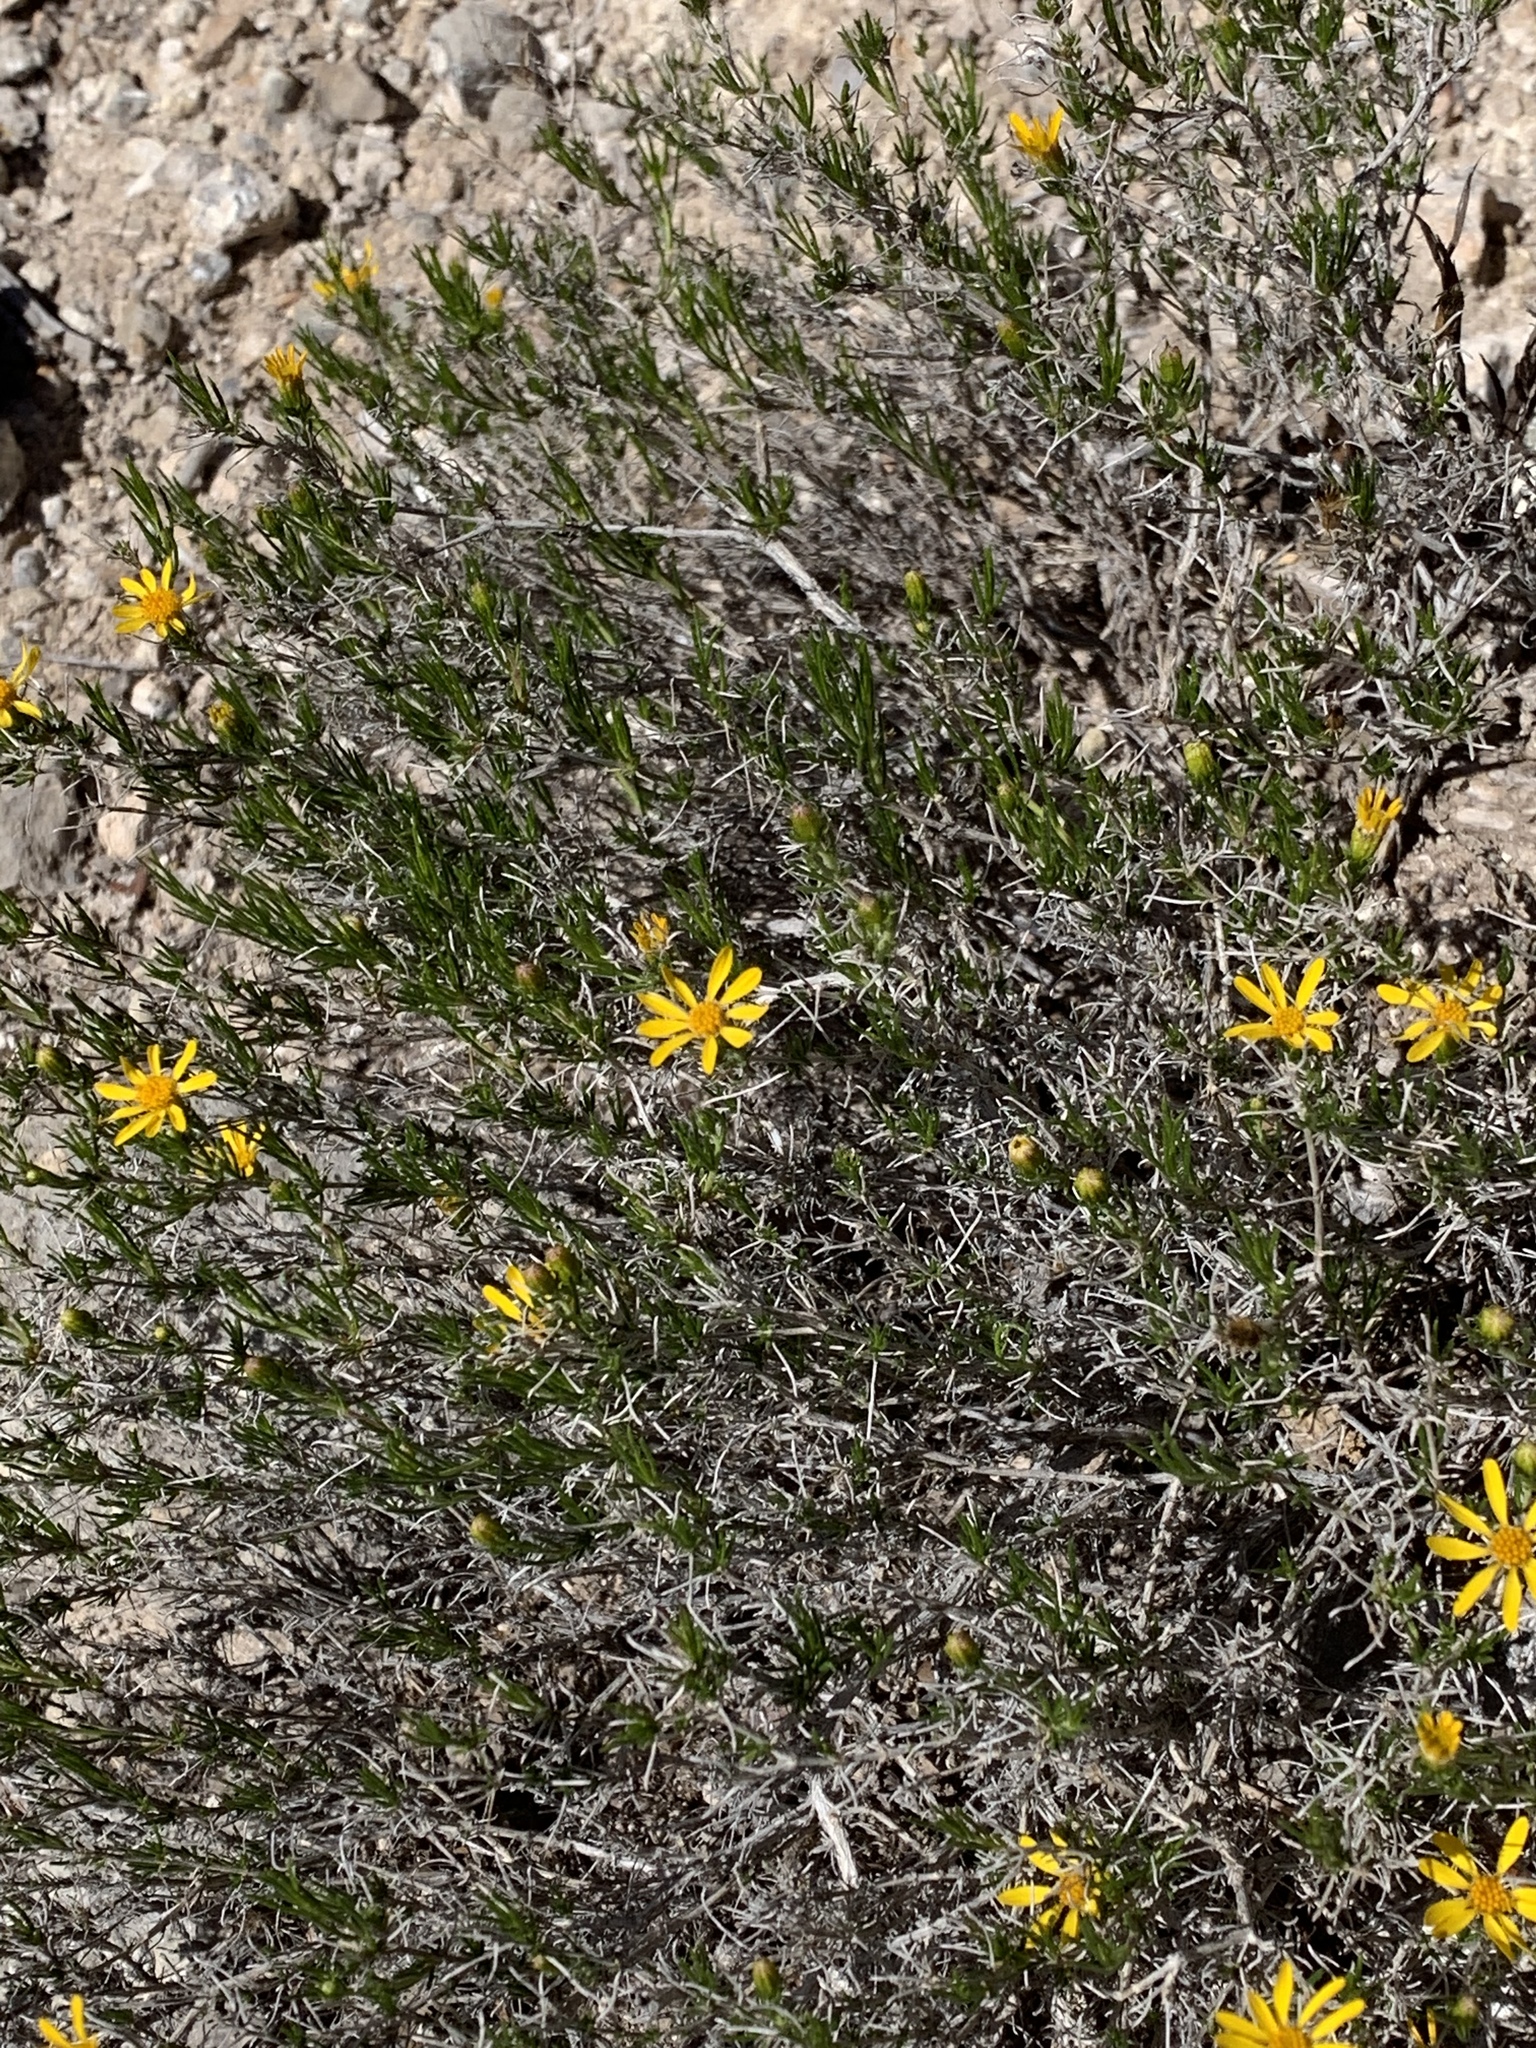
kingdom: Plantae
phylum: Tracheophyta
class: Magnoliopsida
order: Asterales
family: Asteraceae
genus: Thymophylla
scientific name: Thymophylla acerosa
